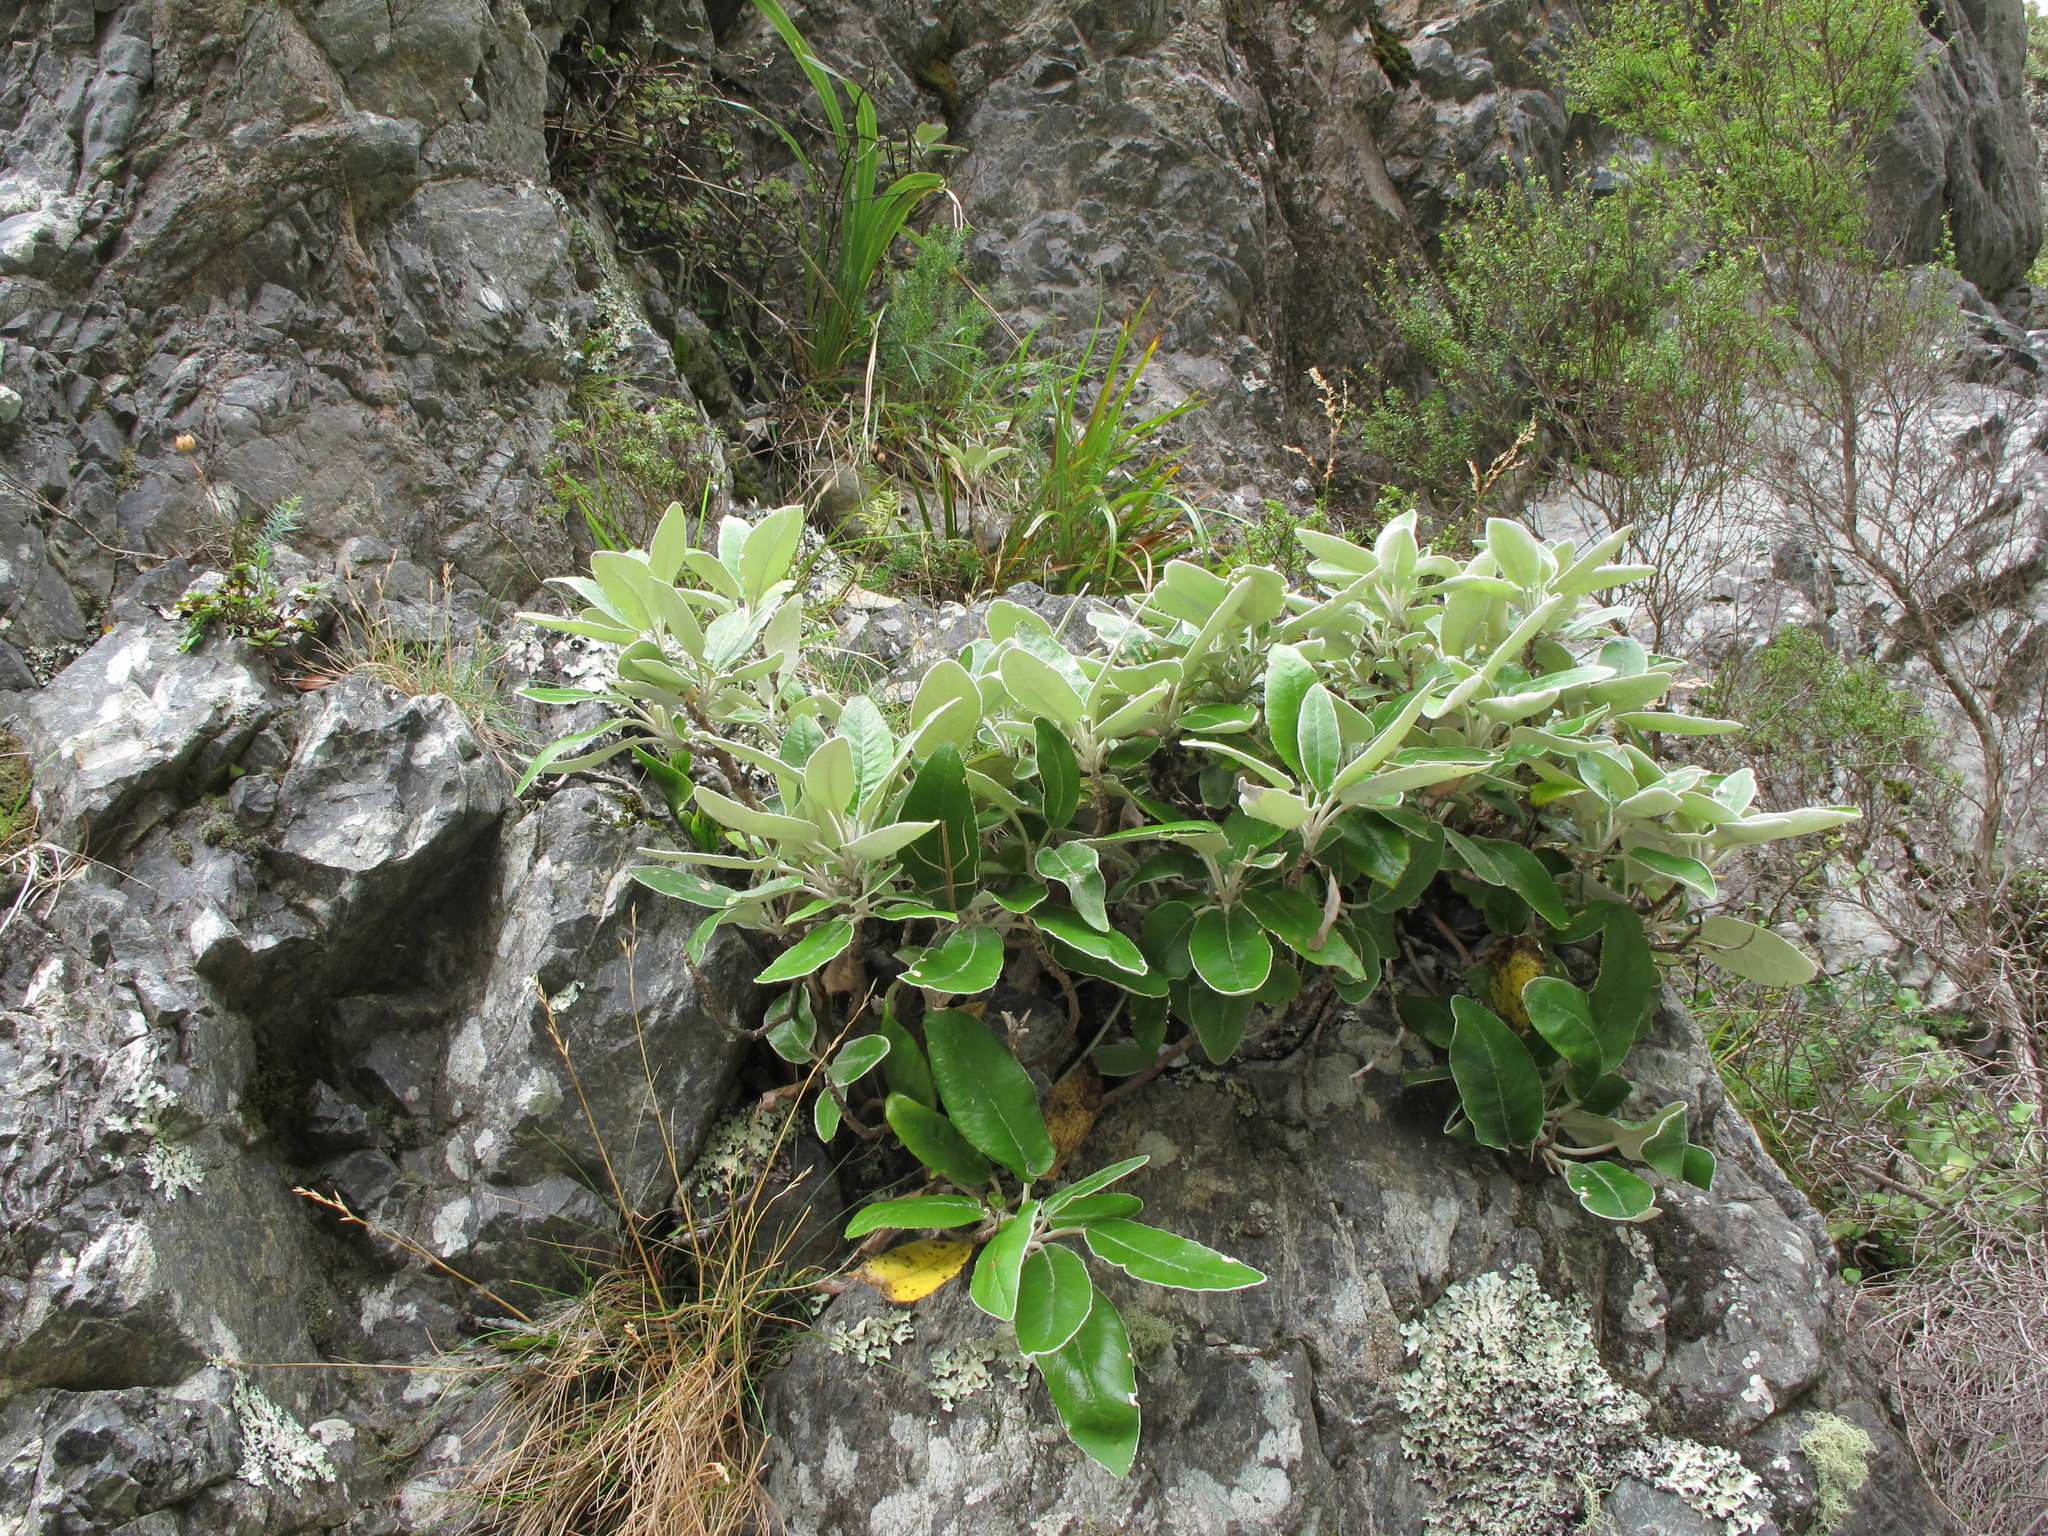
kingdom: Plantae
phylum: Tracheophyta
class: Magnoliopsida
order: Asterales
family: Asteraceae
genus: Brachyglottis
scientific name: Brachyglottis greyi
